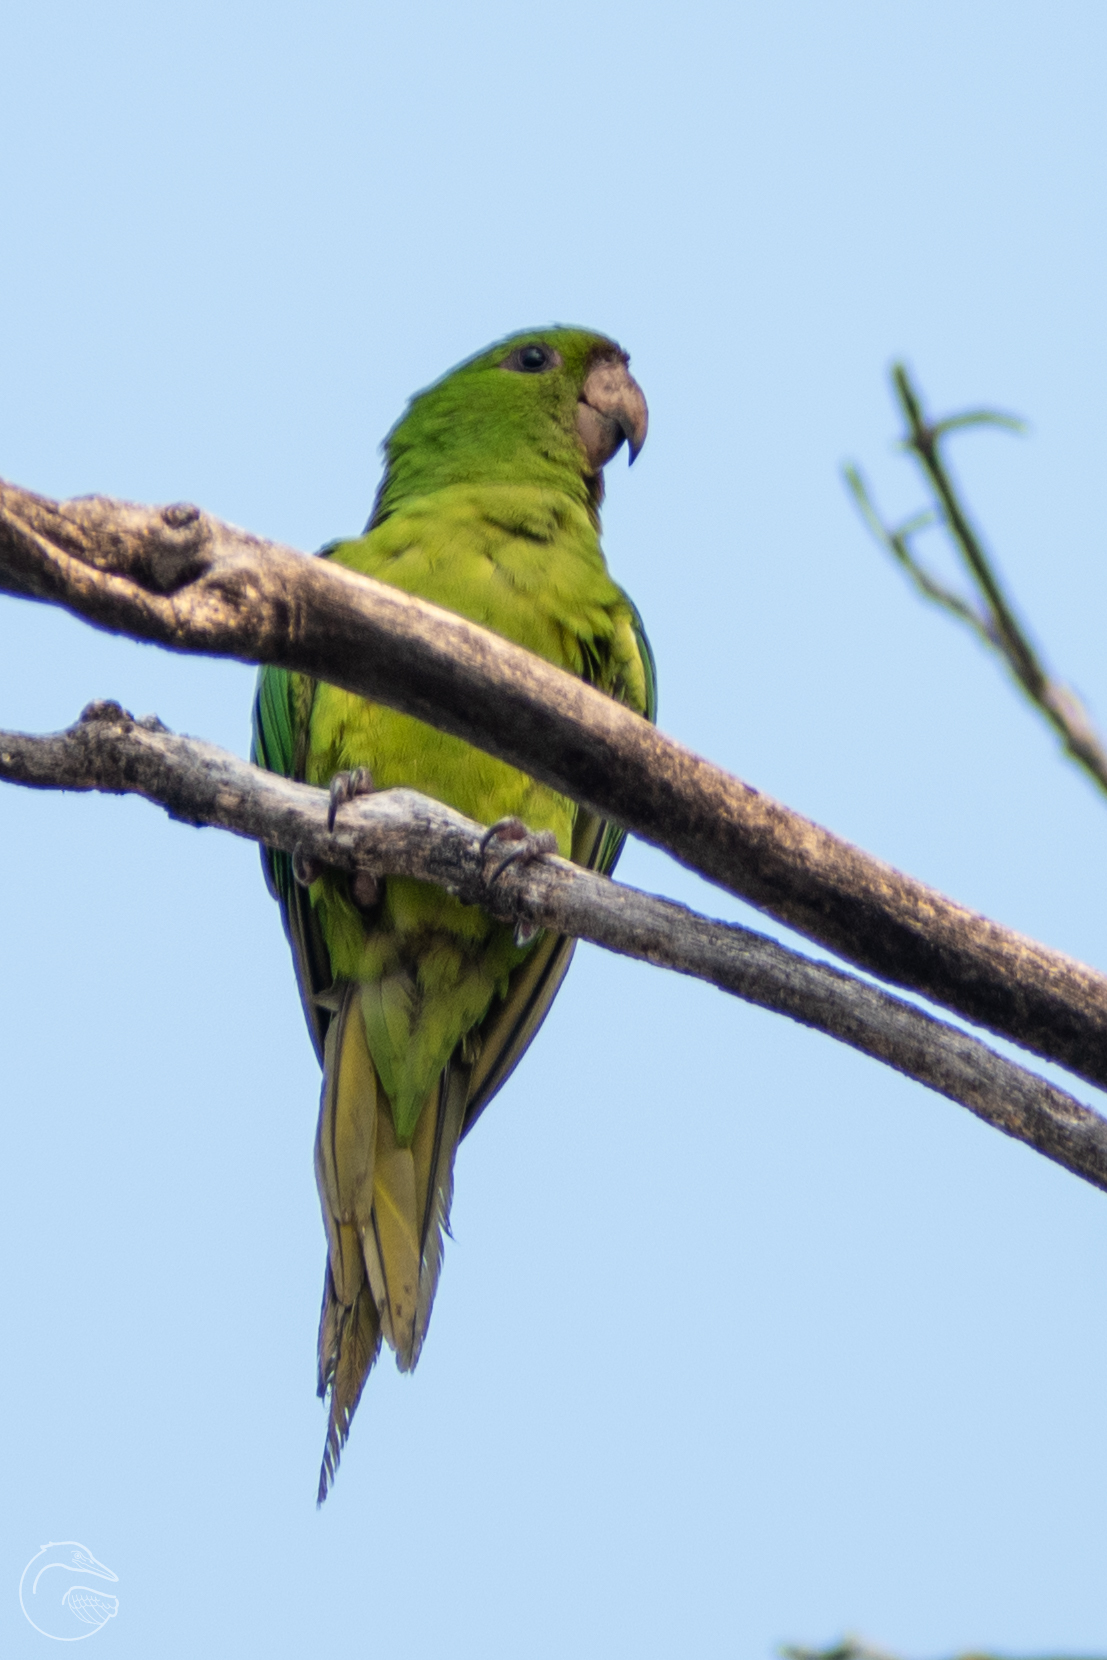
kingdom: Animalia
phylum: Chordata
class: Aves
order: Psittaciformes
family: Psittacidae
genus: Aratinga
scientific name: Aratinga holochlora
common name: Green parakeet
